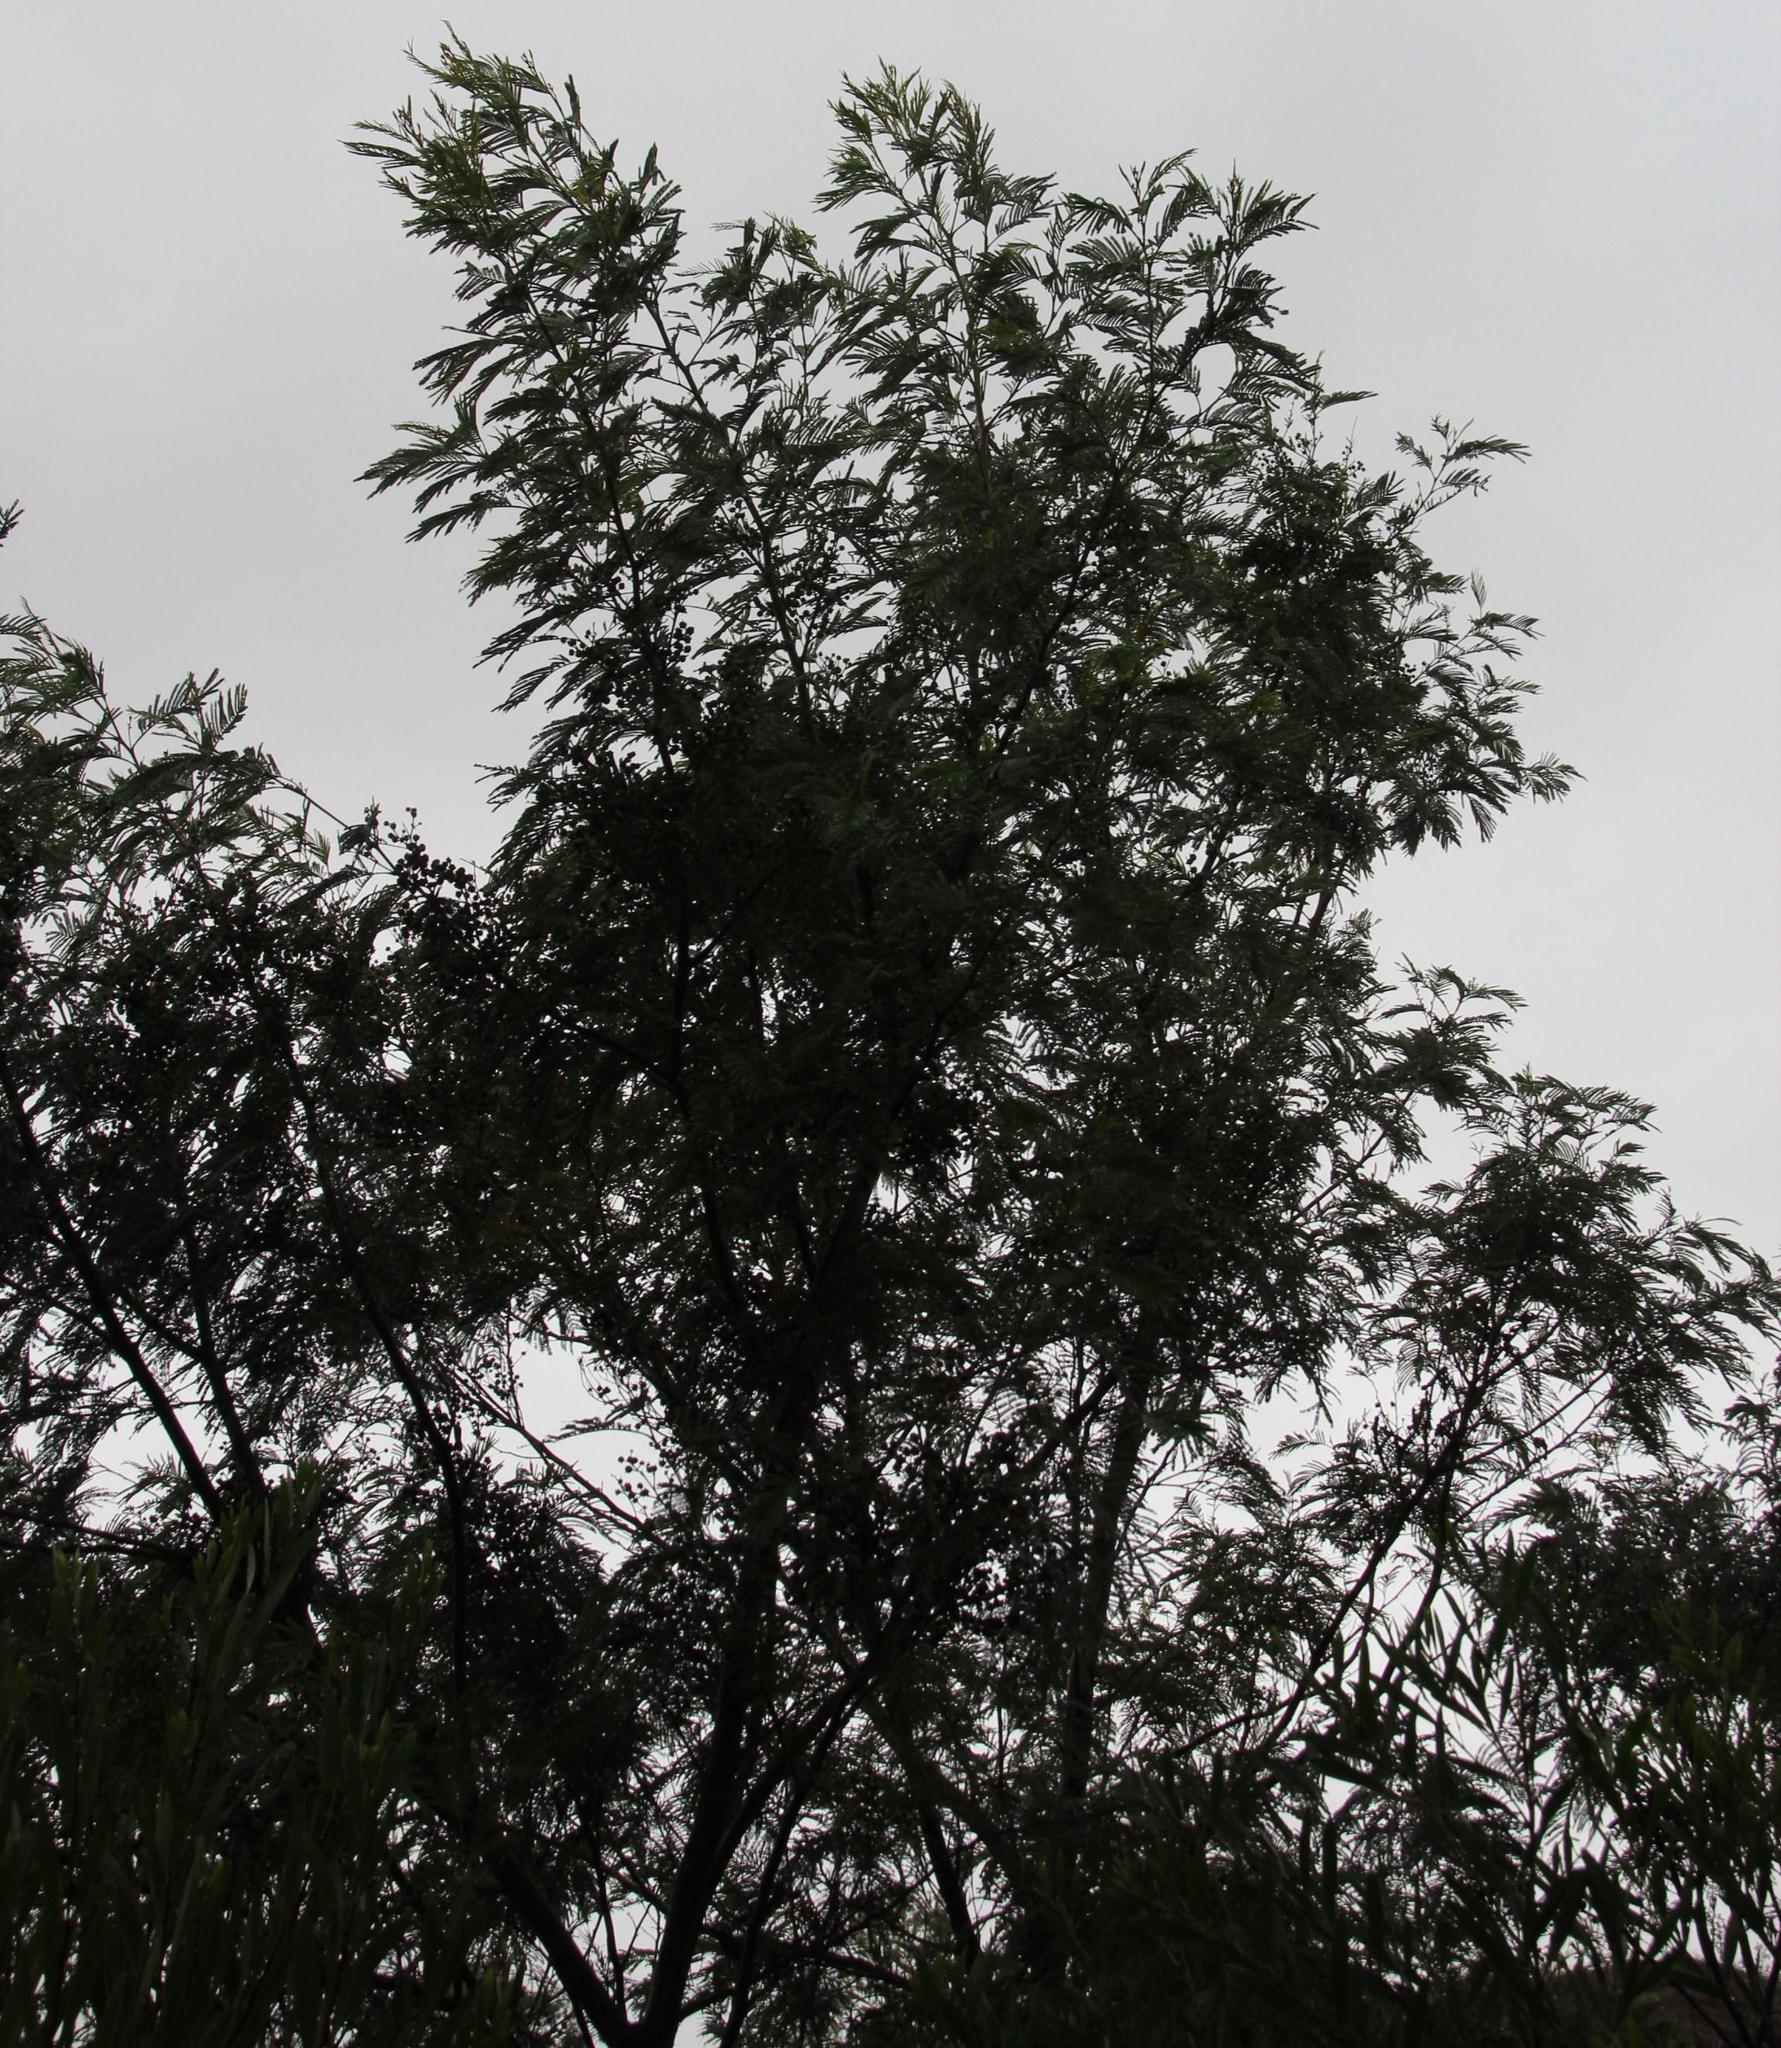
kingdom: Plantae
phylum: Tracheophyta
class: Magnoliopsida
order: Fabales
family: Fabaceae
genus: Acacia
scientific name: Acacia mearnsii
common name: Black wattle
